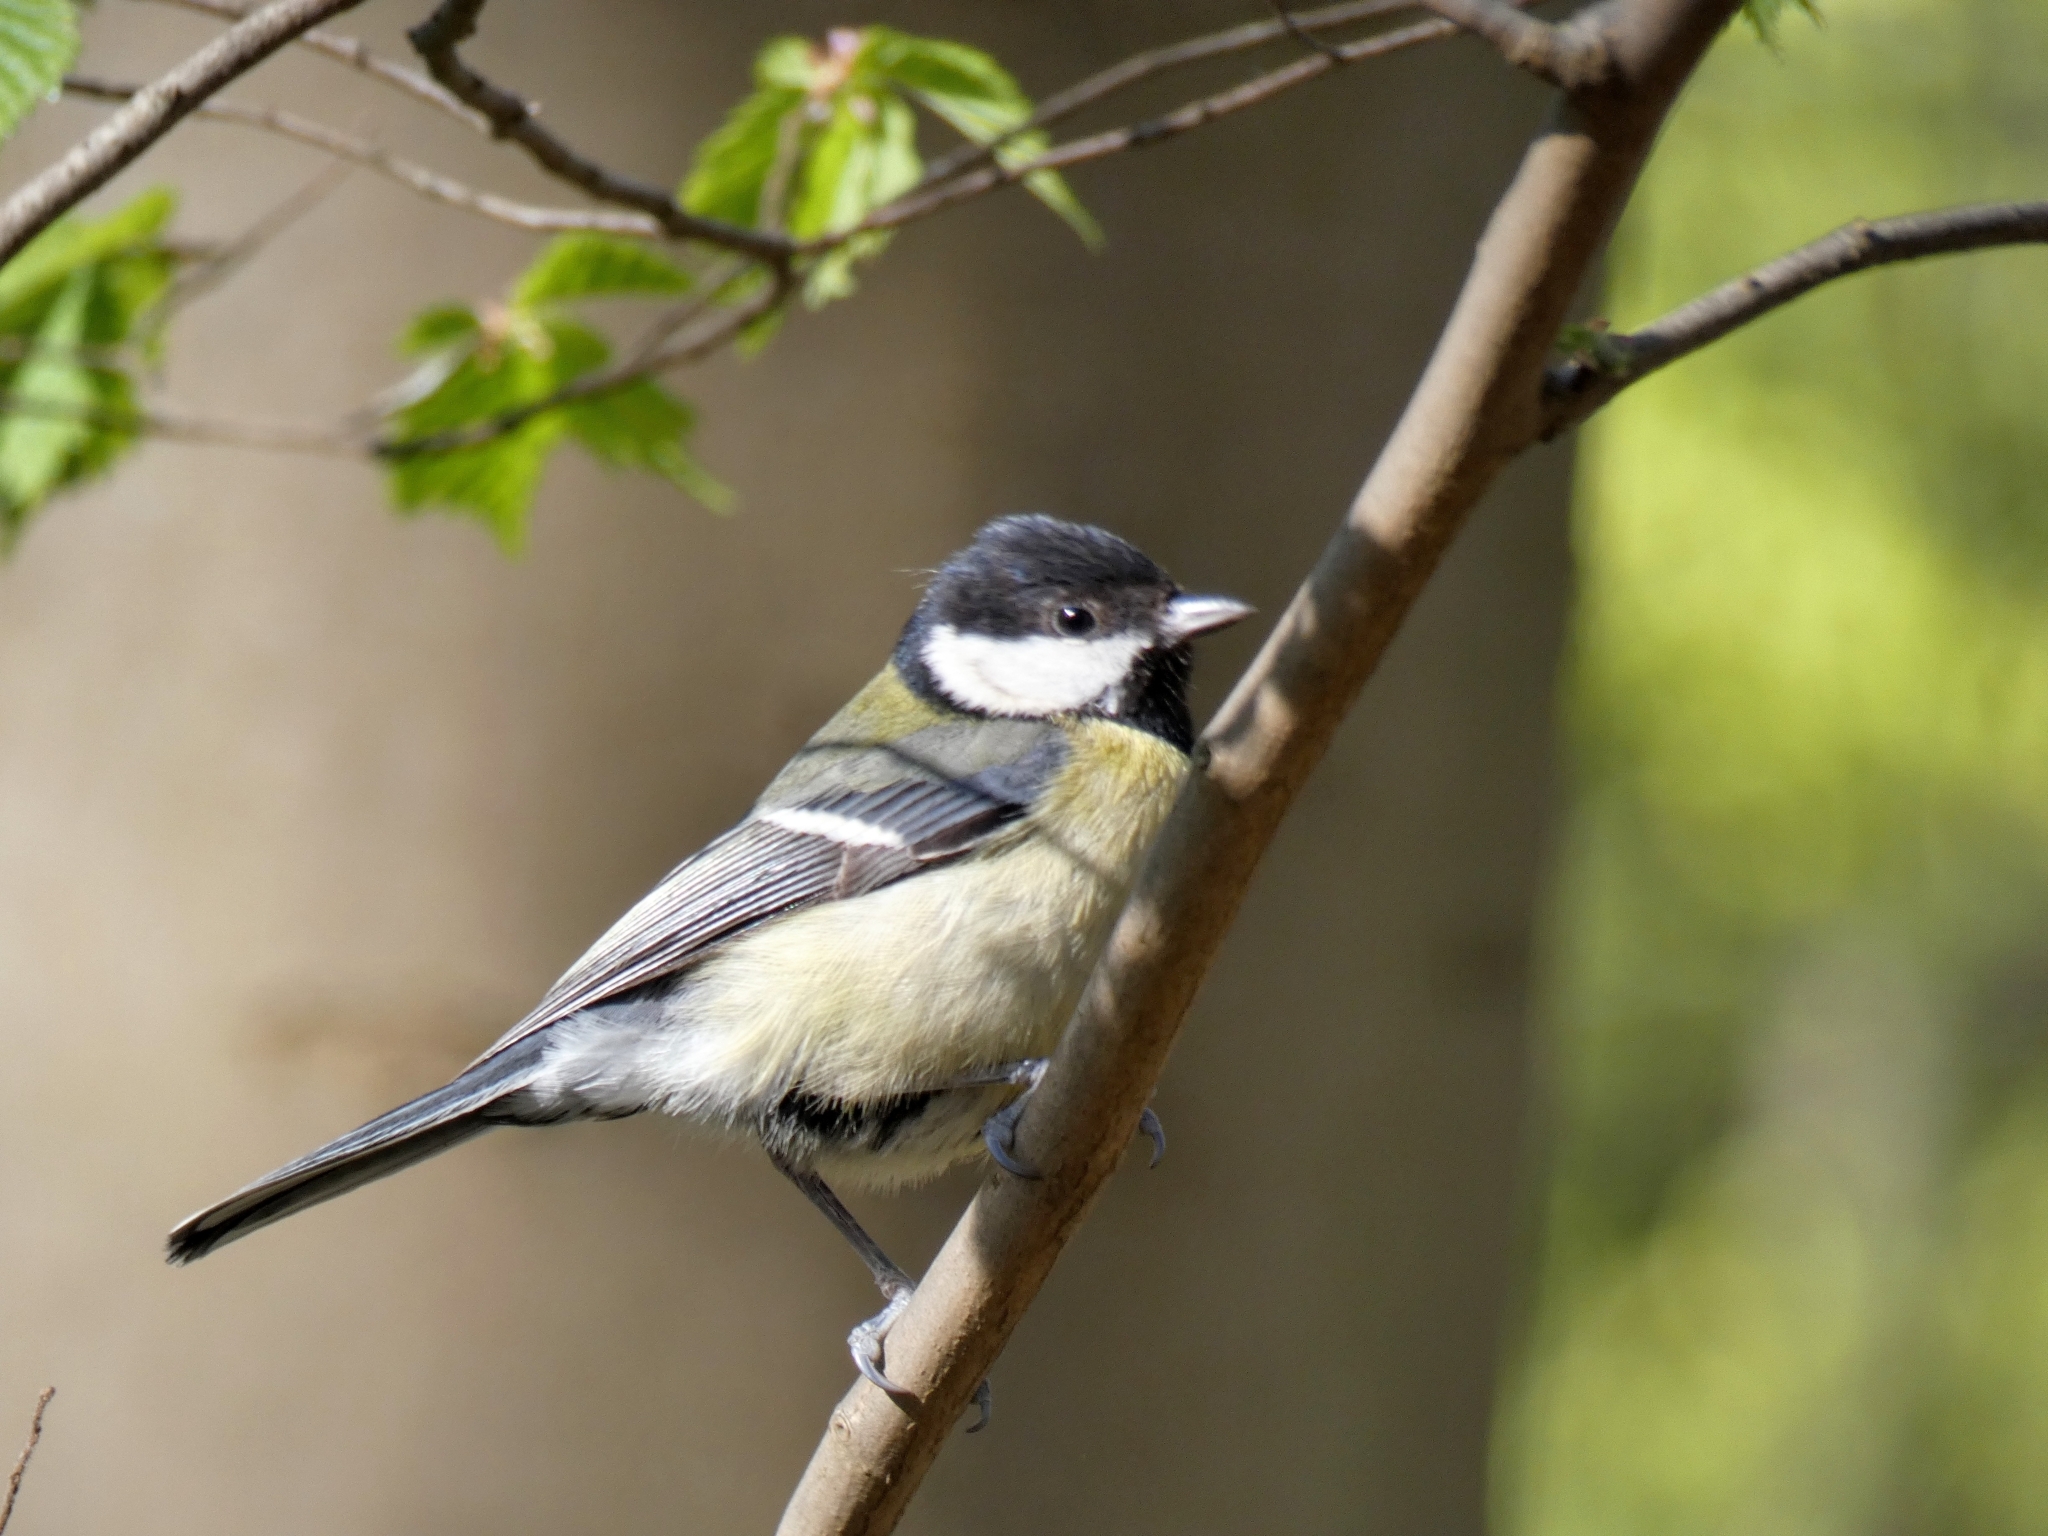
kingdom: Animalia
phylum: Chordata
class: Aves
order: Passeriformes
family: Paridae
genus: Parus
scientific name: Parus major
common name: Great tit
